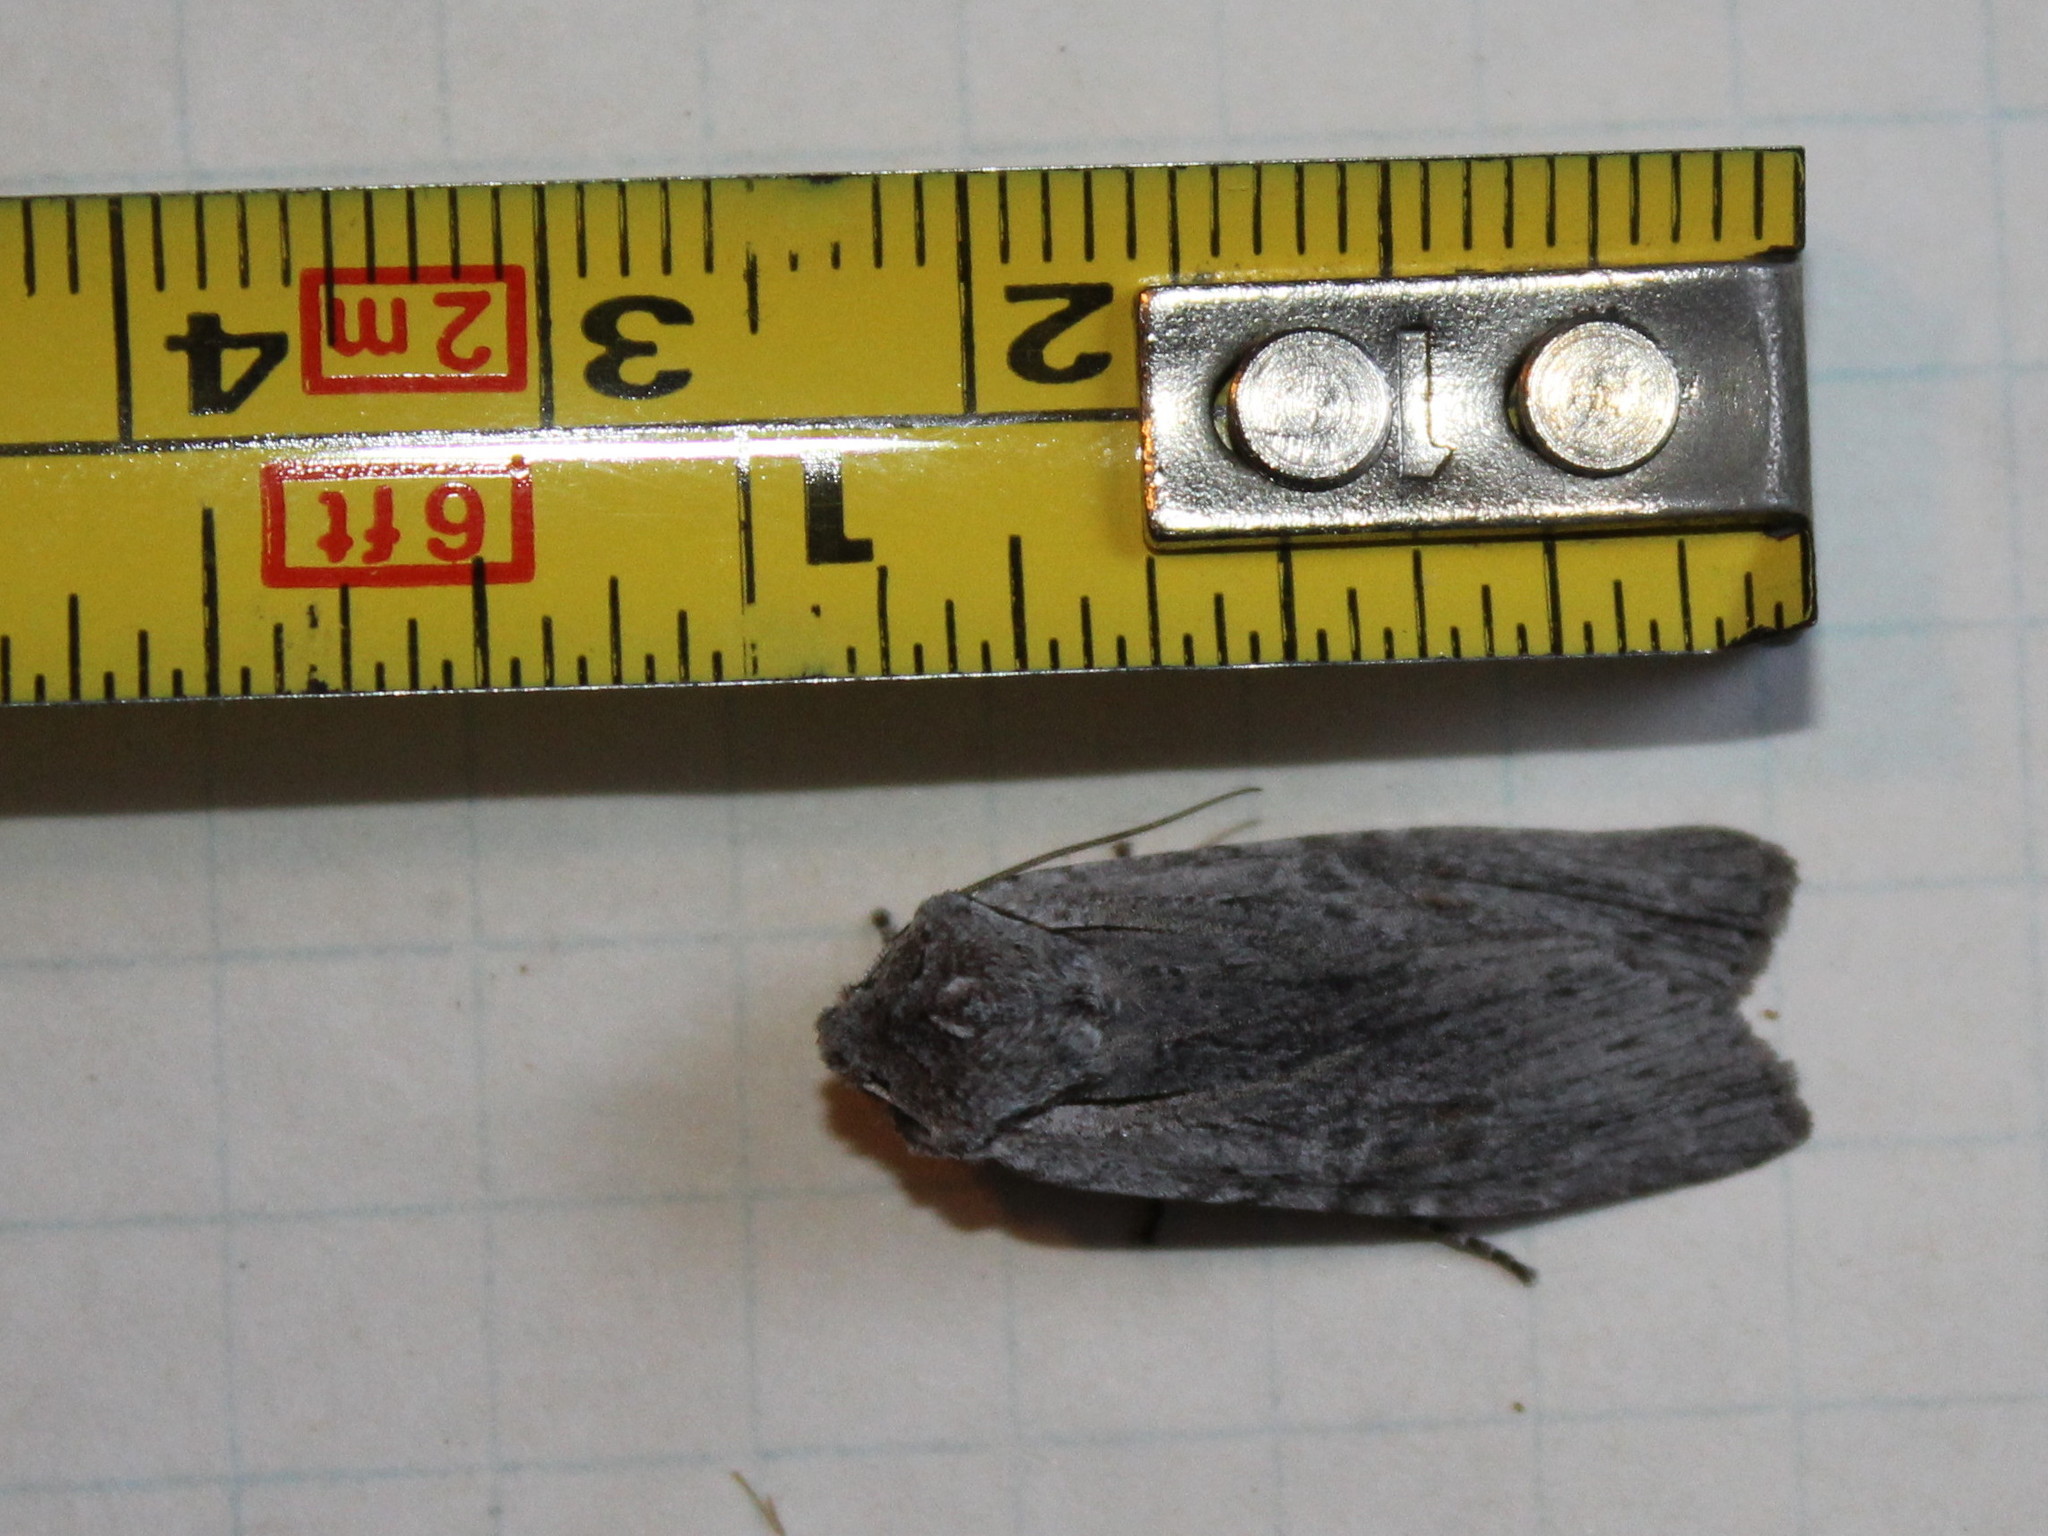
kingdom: Animalia
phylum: Arthropoda
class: Insecta
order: Lepidoptera
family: Noctuidae
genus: Lithophane
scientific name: Lithophane georgii
